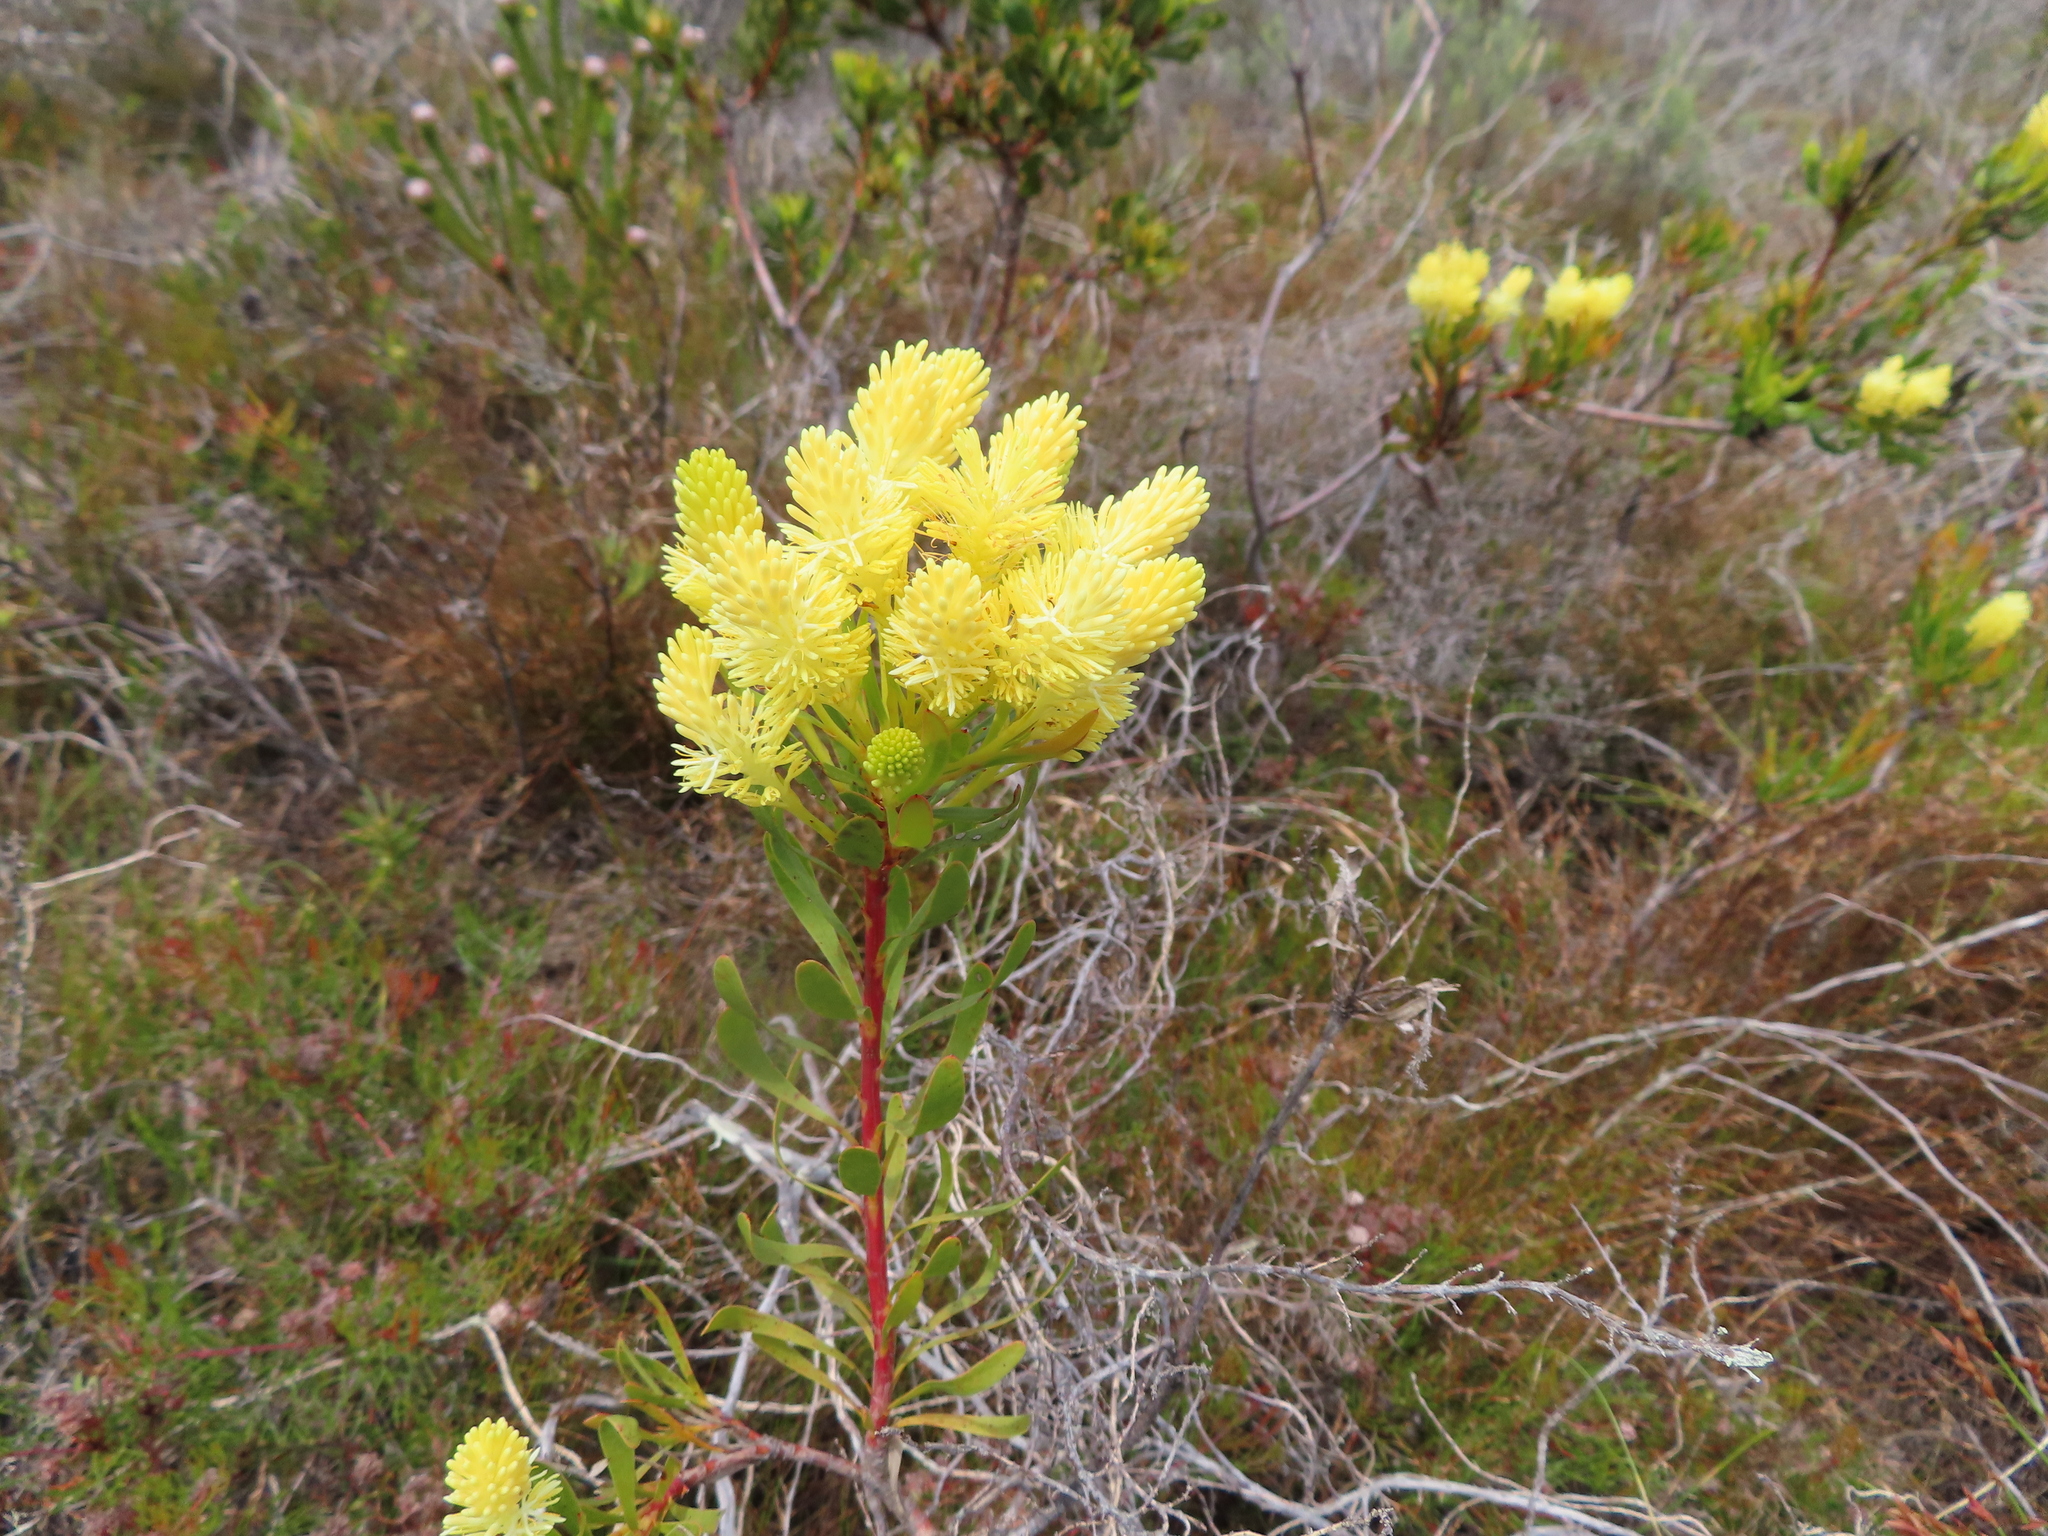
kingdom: Plantae
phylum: Tracheophyta
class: Magnoliopsida
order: Proteales
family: Proteaceae
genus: Aulax
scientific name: Aulax umbellata
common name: Broad-leaf featherbush
